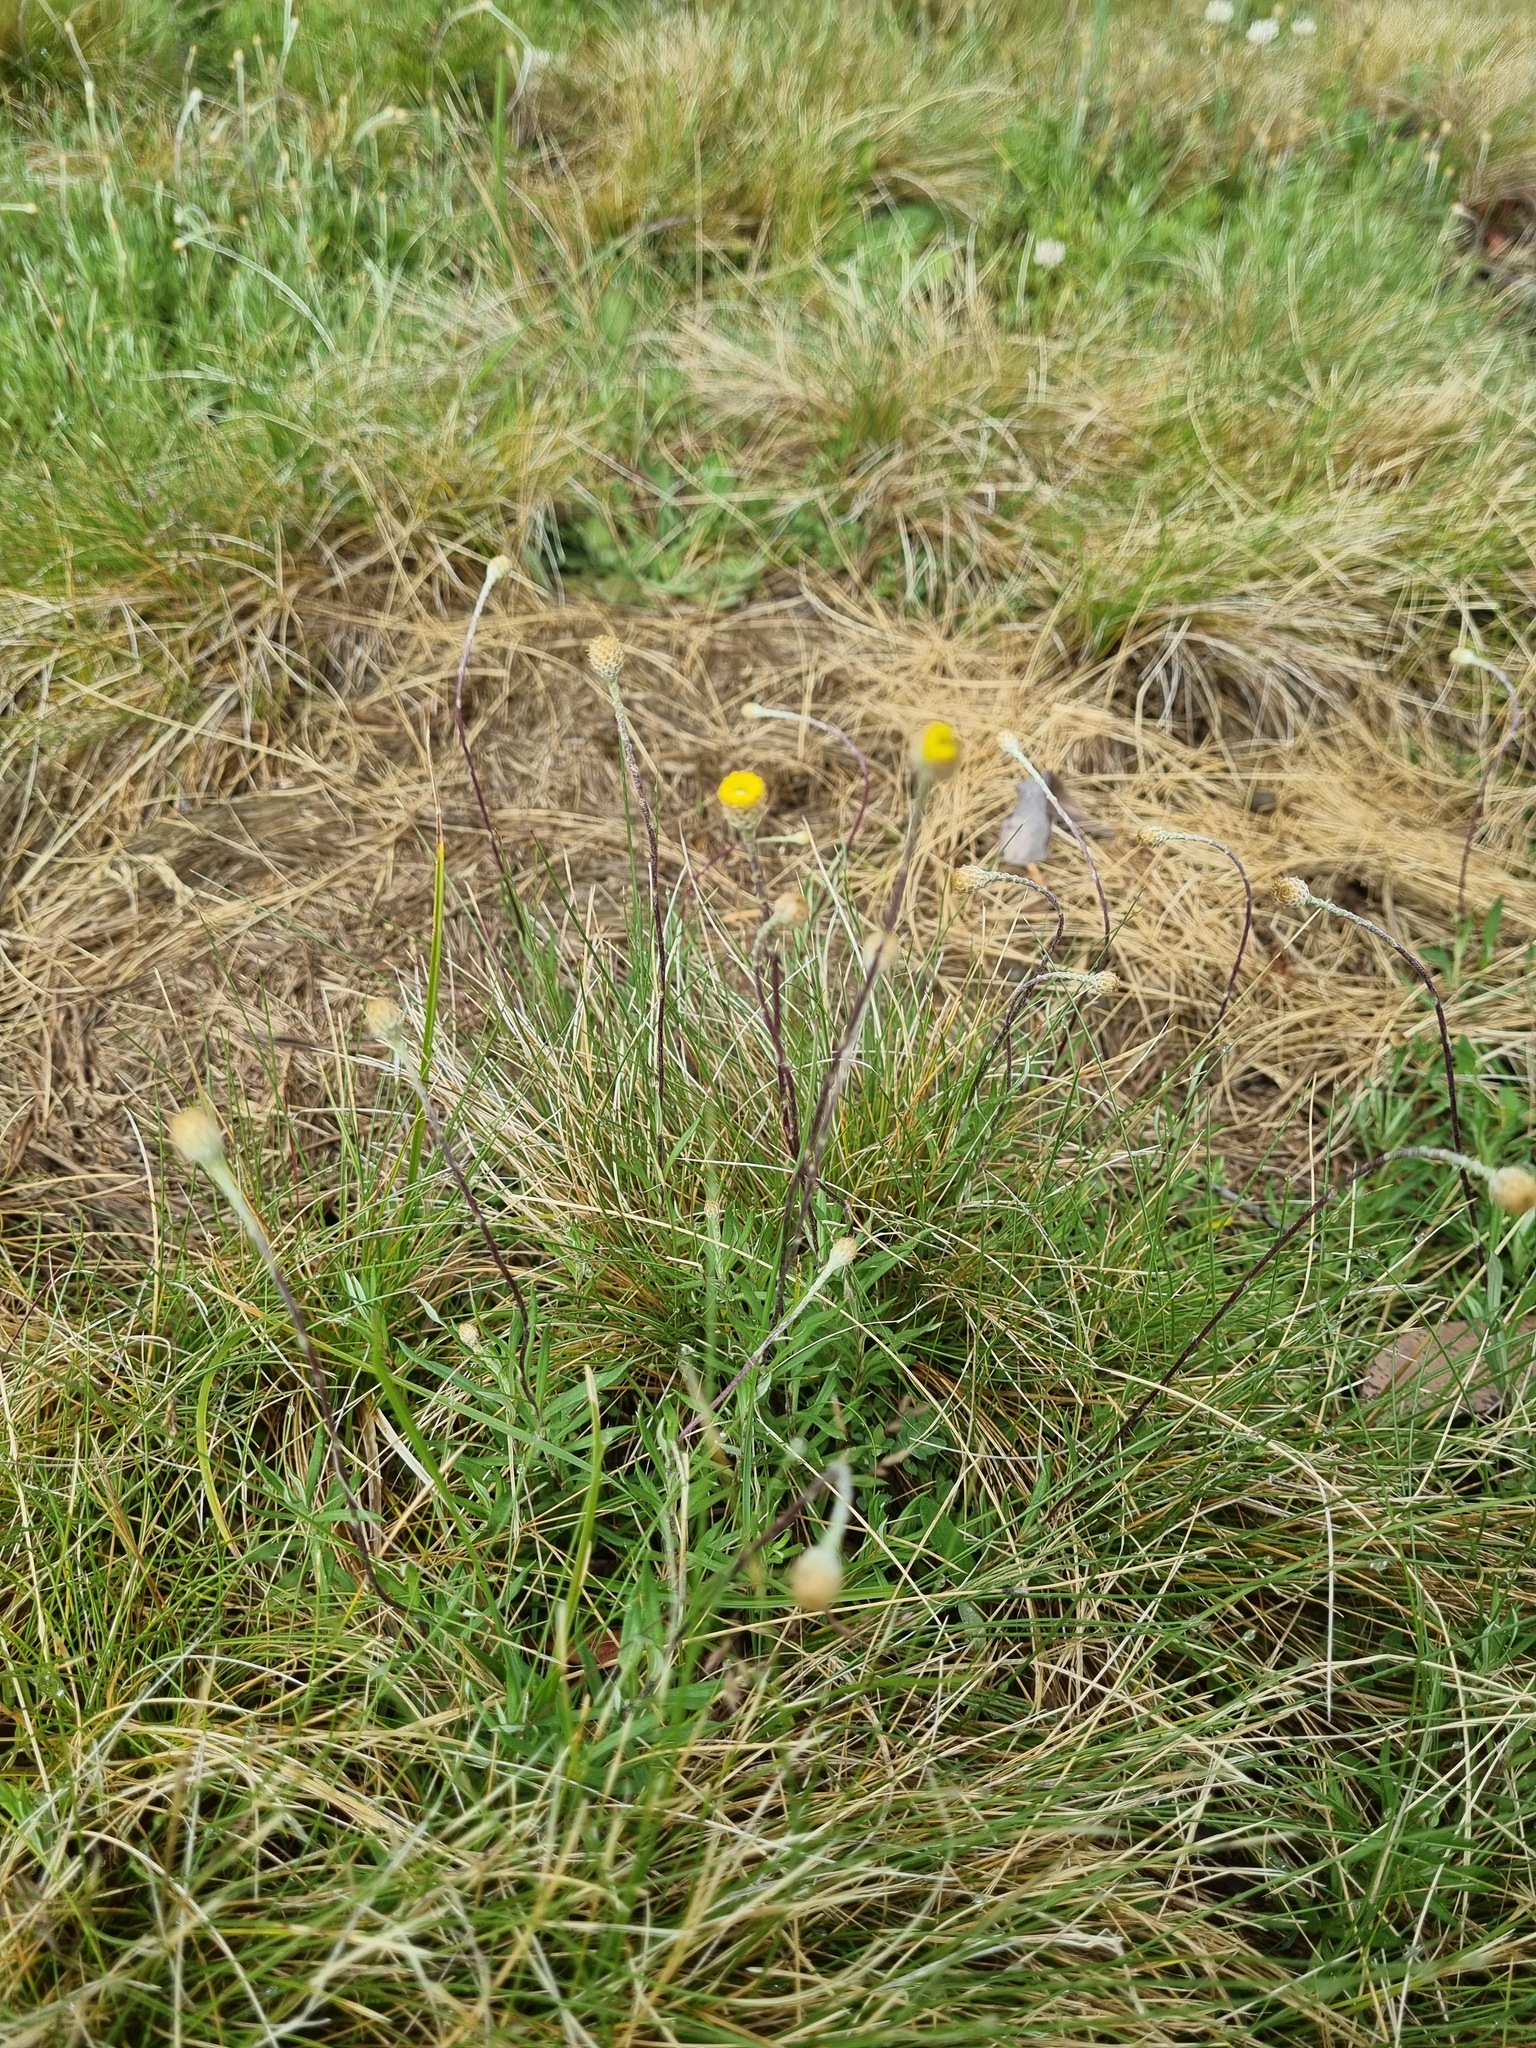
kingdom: Plantae
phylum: Tracheophyta
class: Magnoliopsida
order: Asterales
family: Asteraceae
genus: Leptorhynchos
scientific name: Leptorhynchos squamatus
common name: Scaly-buttons
